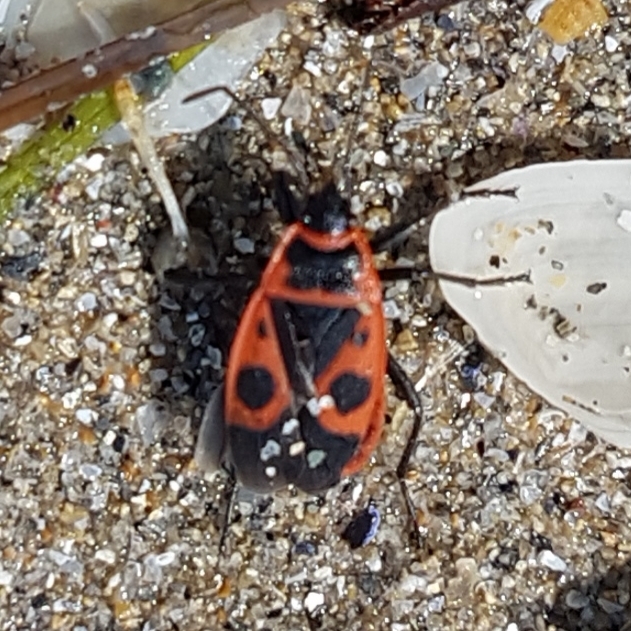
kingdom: Animalia
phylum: Arthropoda
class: Insecta
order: Hemiptera
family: Pyrrhocoridae
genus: Pyrrhocoris
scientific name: Pyrrhocoris apterus
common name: Firebug
